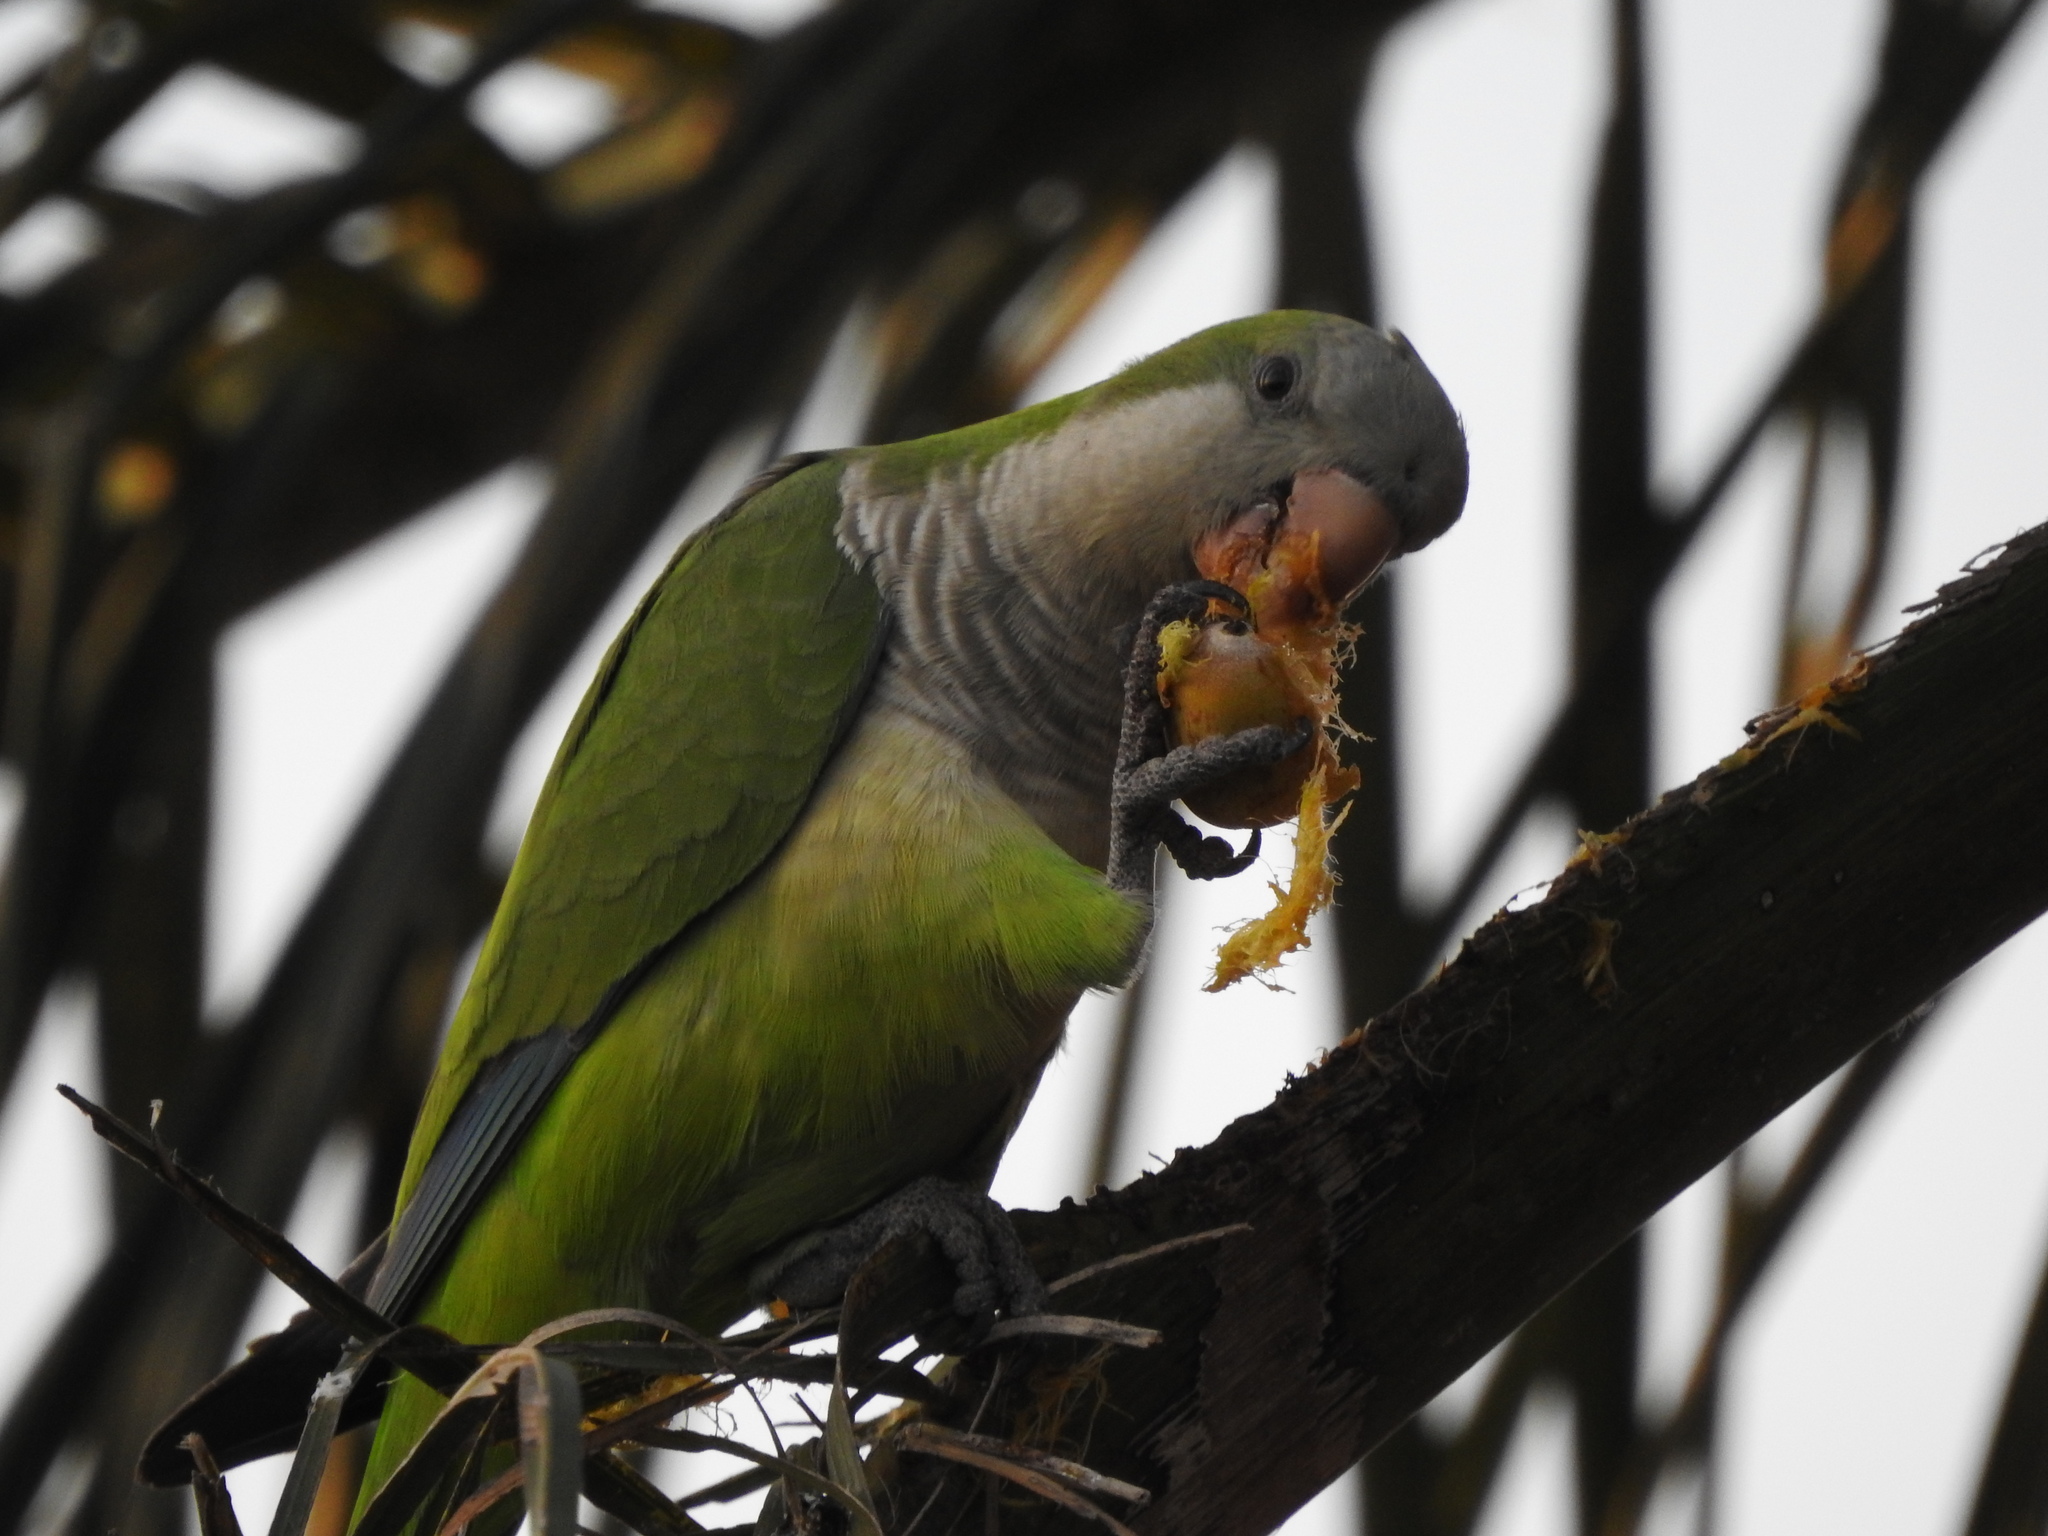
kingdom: Animalia
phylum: Chordata
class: Aves
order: Psittaciformes
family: Psittacidae
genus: Myiopsitta
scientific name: Myiopsitta monachus
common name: Monk parakeet
